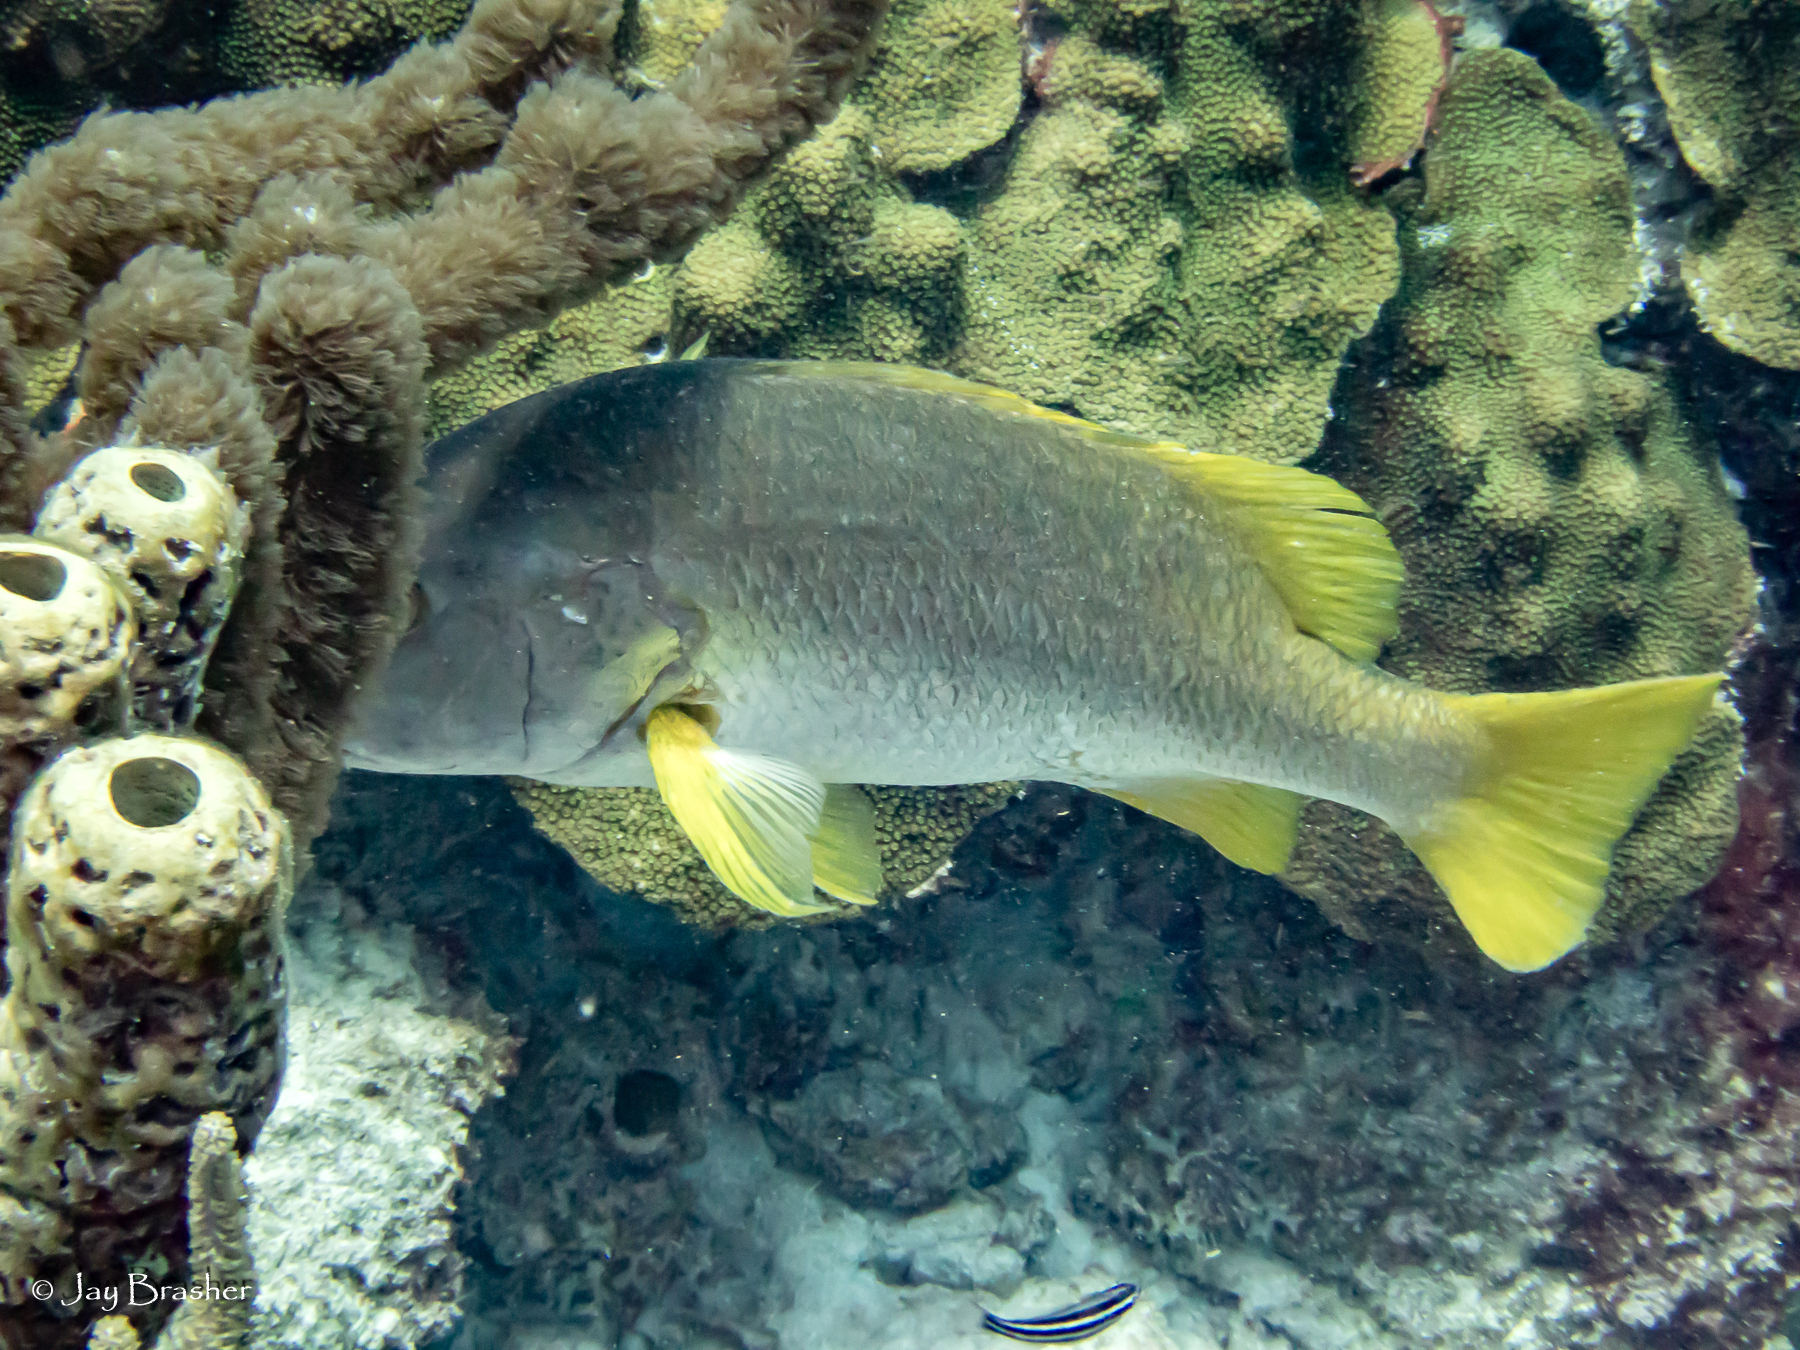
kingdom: Animalia
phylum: Chordata
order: Perciformes
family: Lutjanidae
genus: Lutjanus
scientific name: Lutjanus apodus
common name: Schoolmaster
